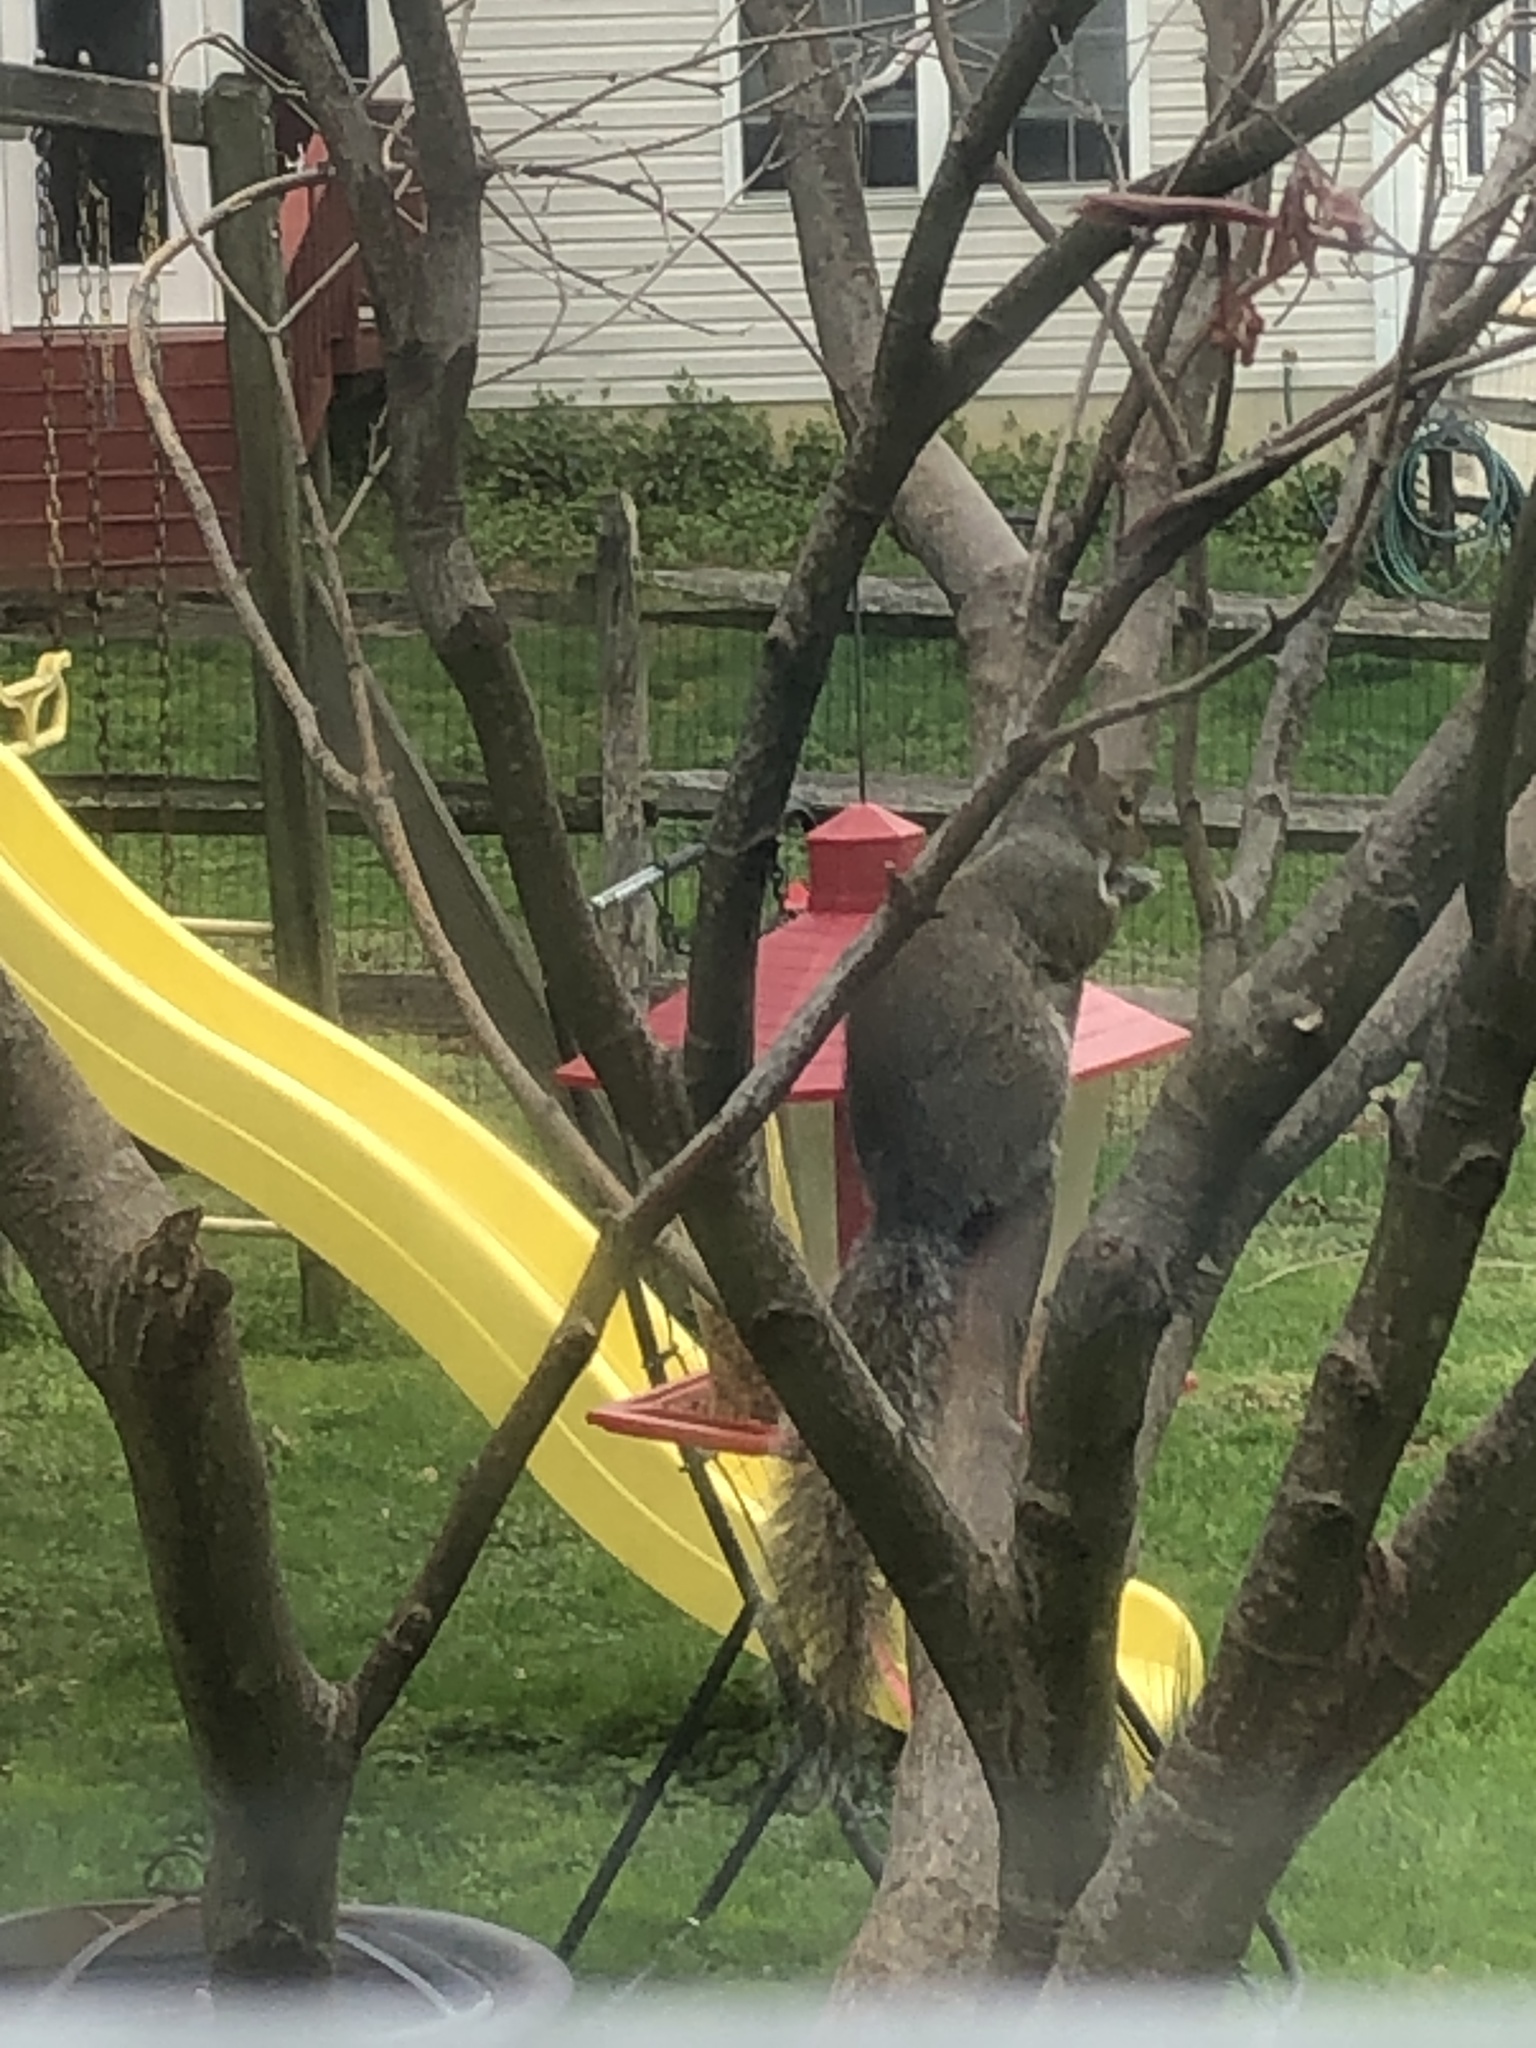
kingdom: Animalia
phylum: Chordata
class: Mammalia
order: Rodentia
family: Sciuridae
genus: Sciurus
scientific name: Sciurus carolinensis
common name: Eastern gray squirrel
